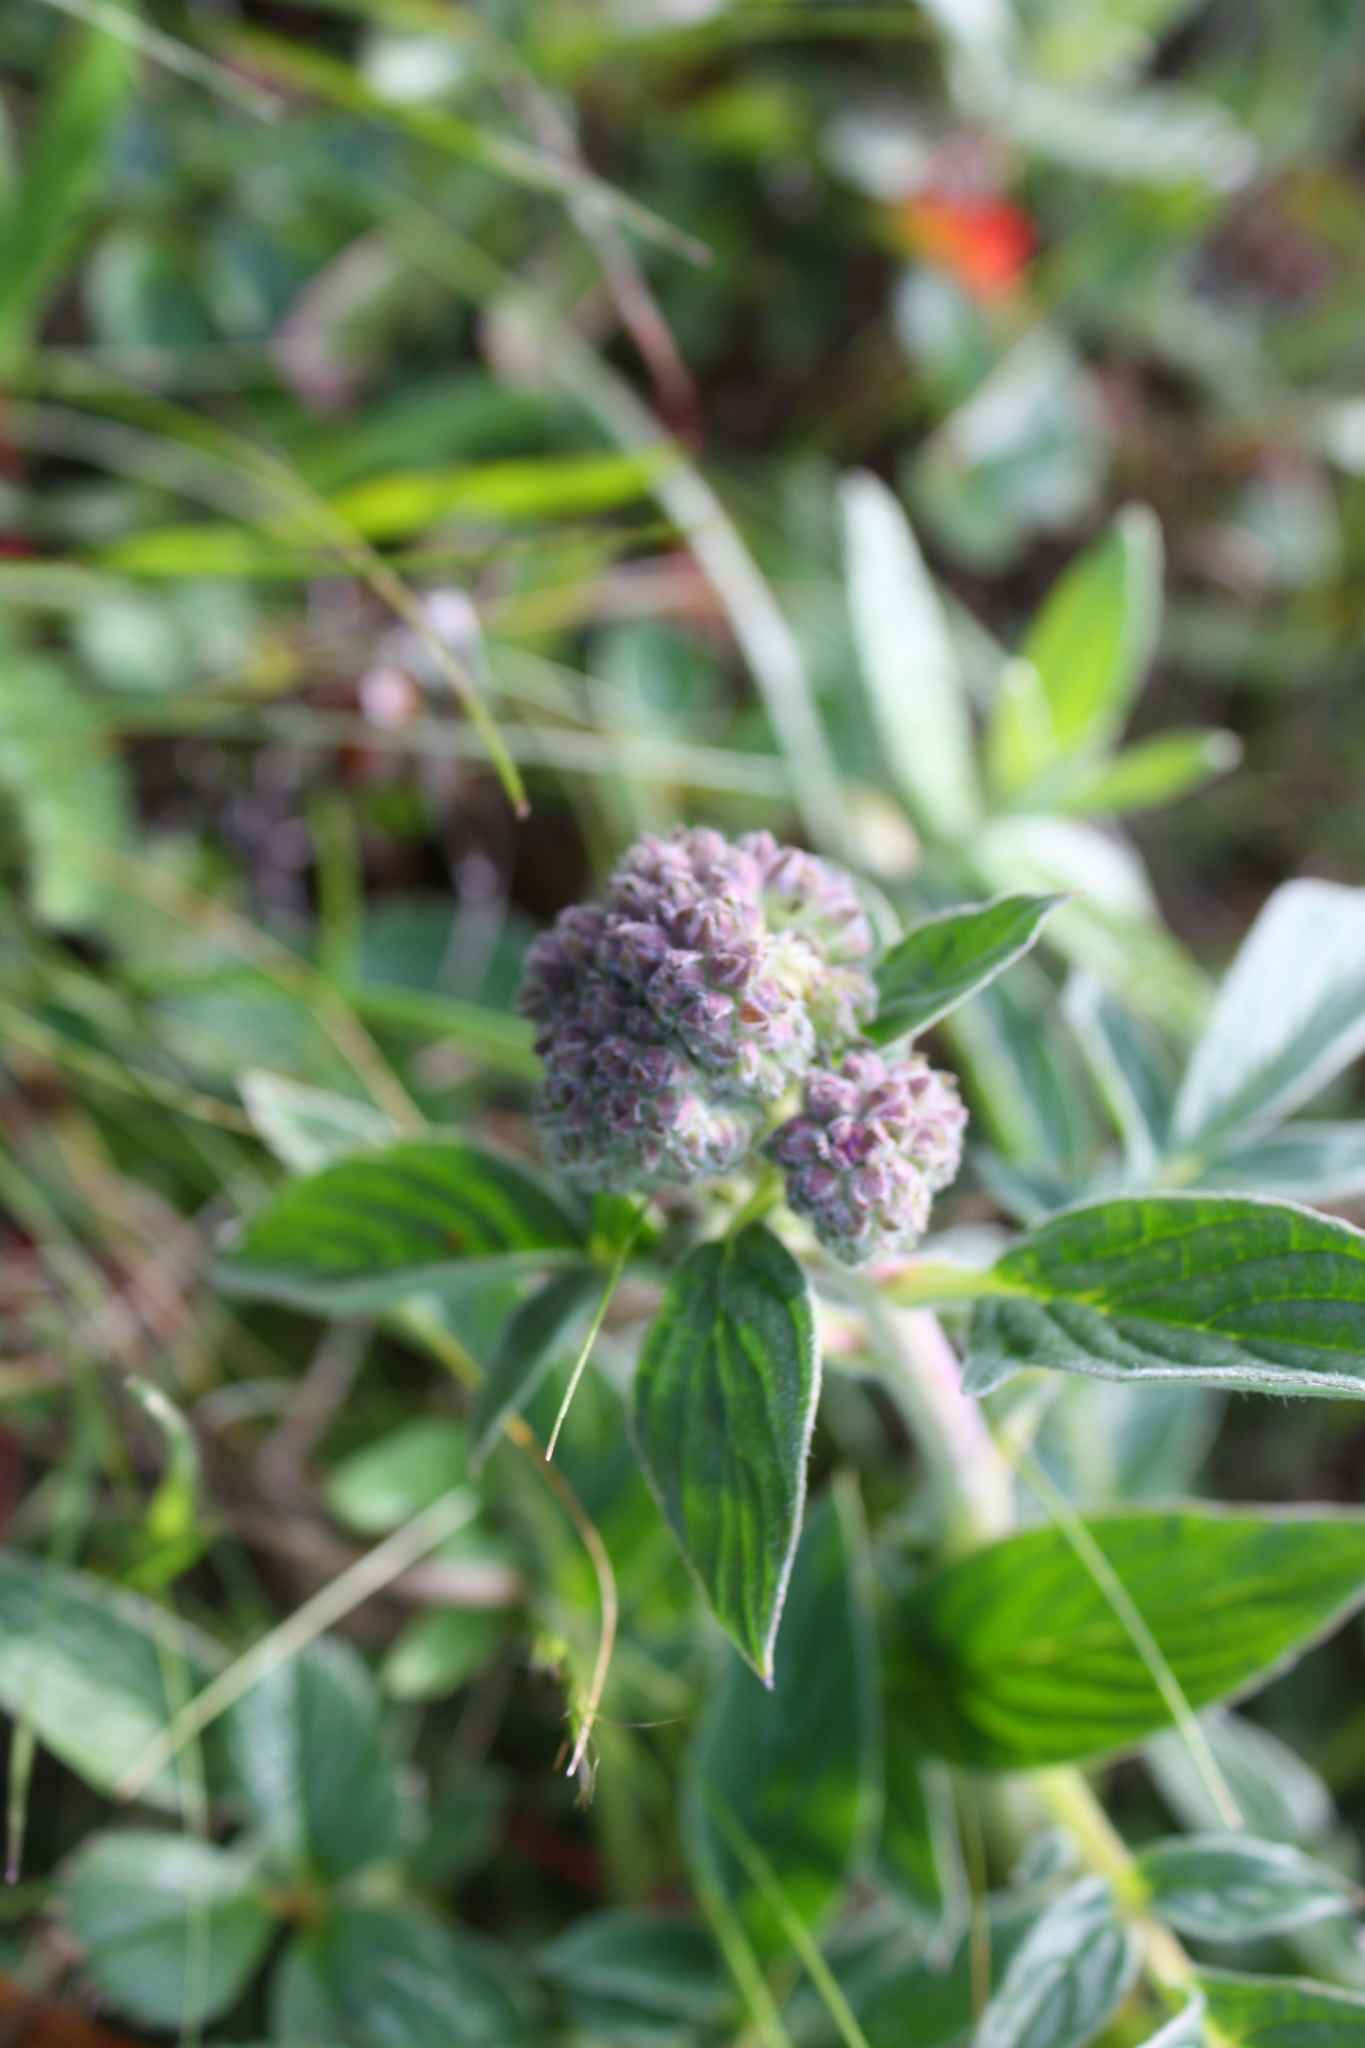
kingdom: Plantae
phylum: Tracheophyta
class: Magnoliopsida
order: Boraginales
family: Hydrophyllaceae
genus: Phacelia
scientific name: Phacelia californica
